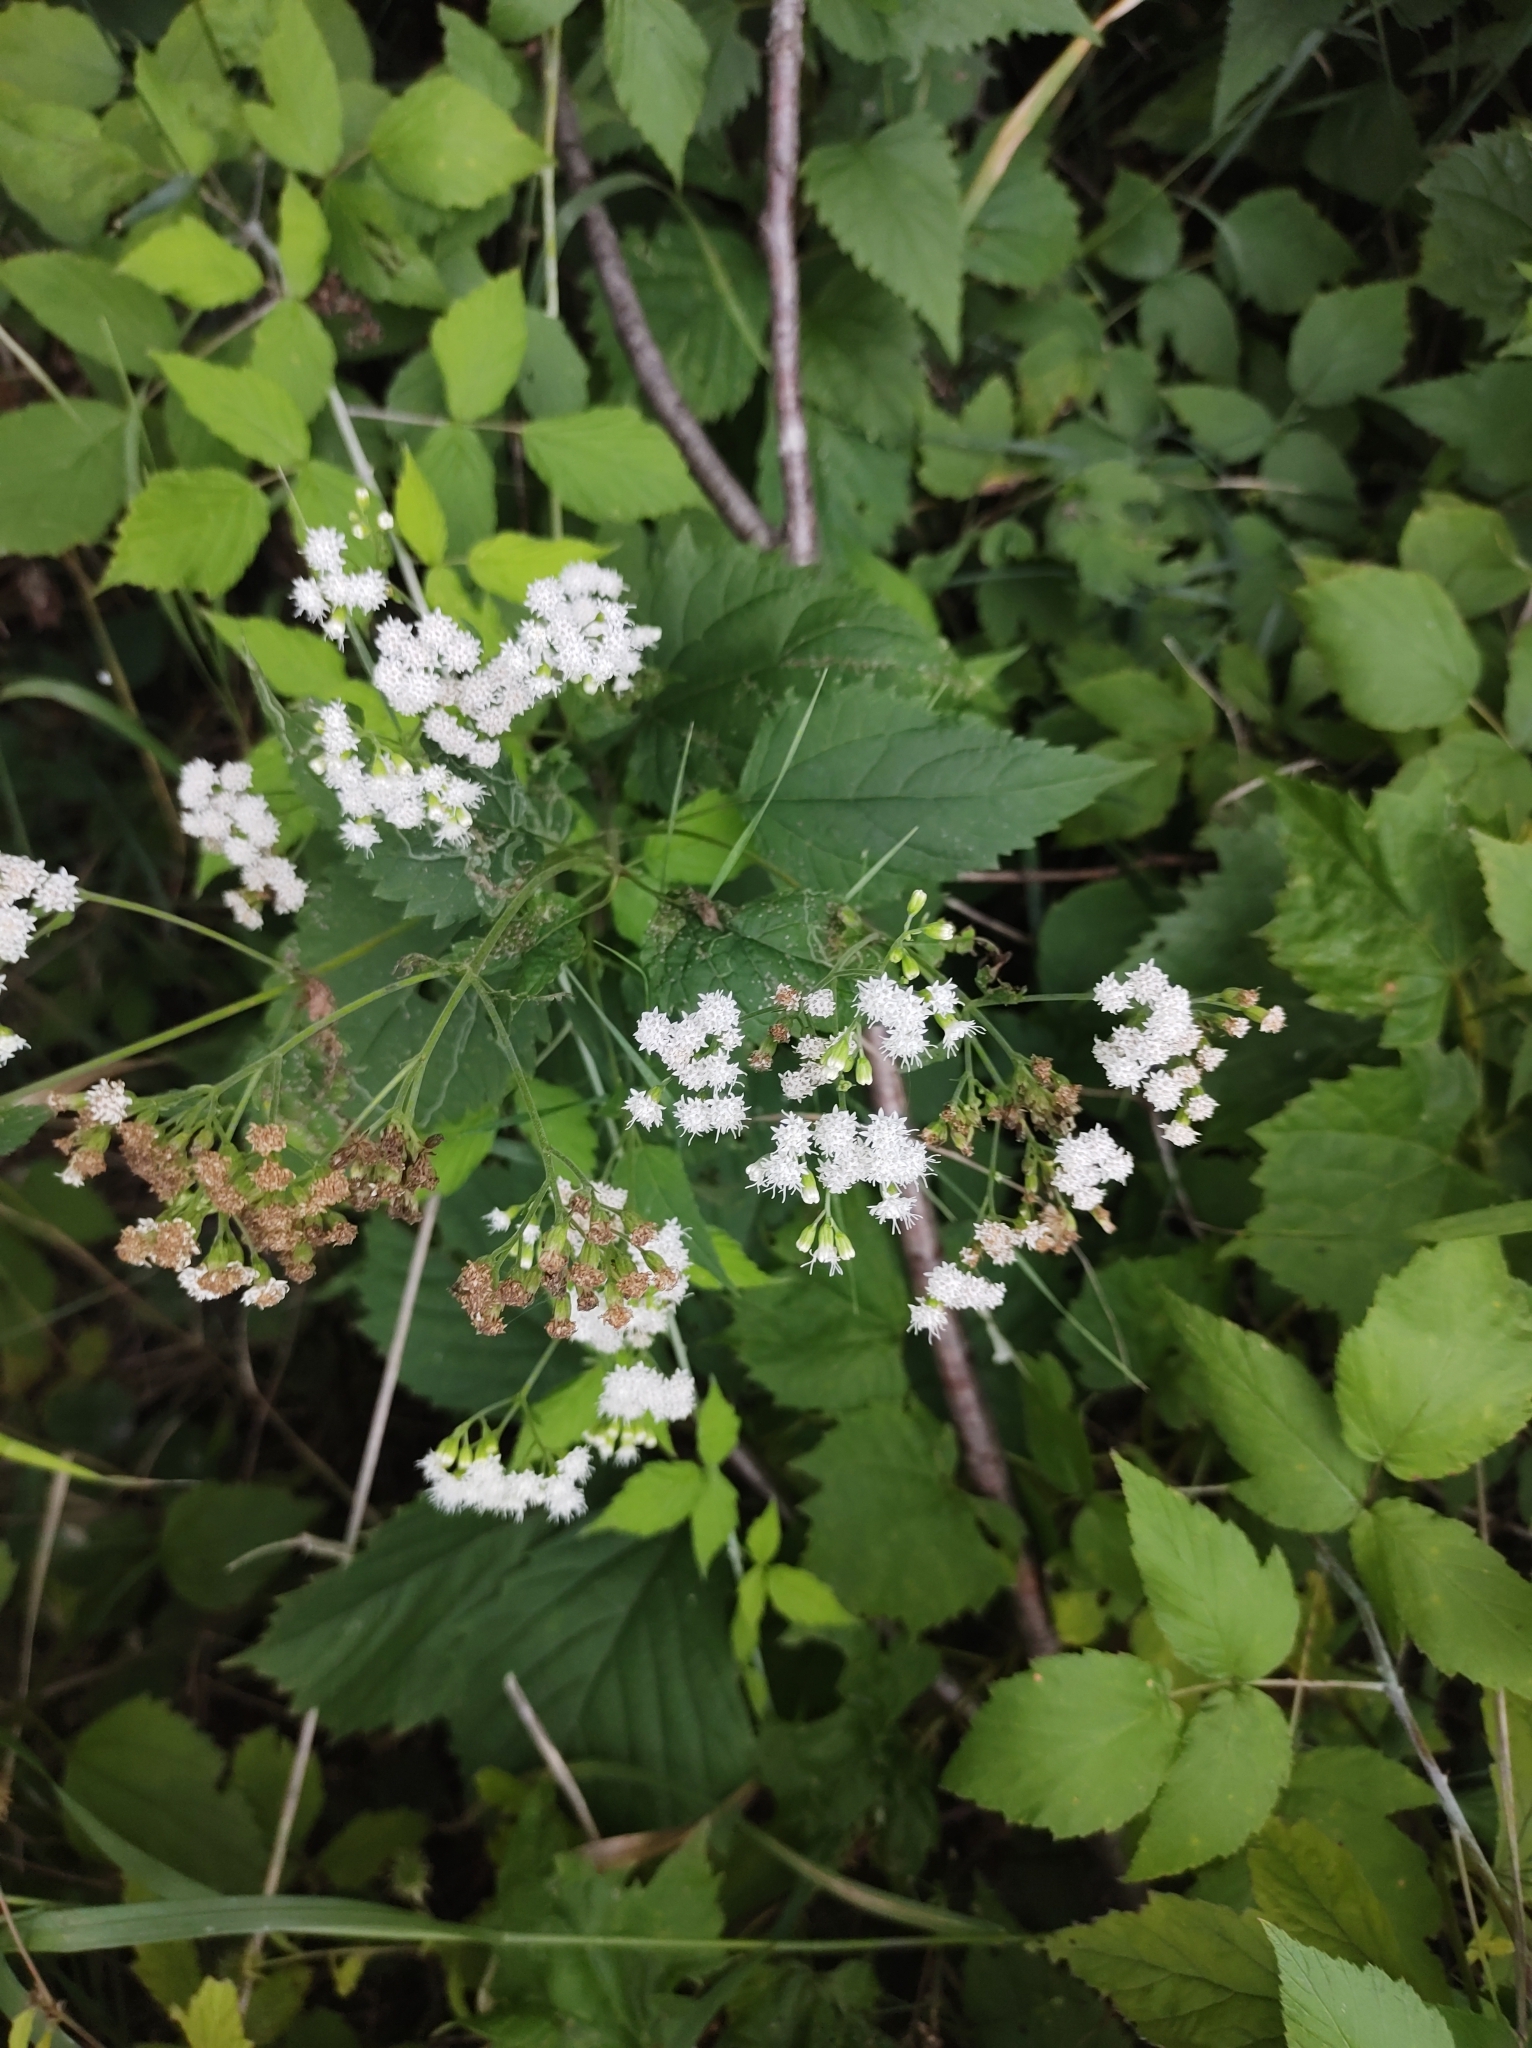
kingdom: Plantae
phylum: Tracheophyta
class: Magnoliopsida
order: Asterales
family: Asteraceae
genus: Ageratina
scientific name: Ageratina altissima
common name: White snakeroot
